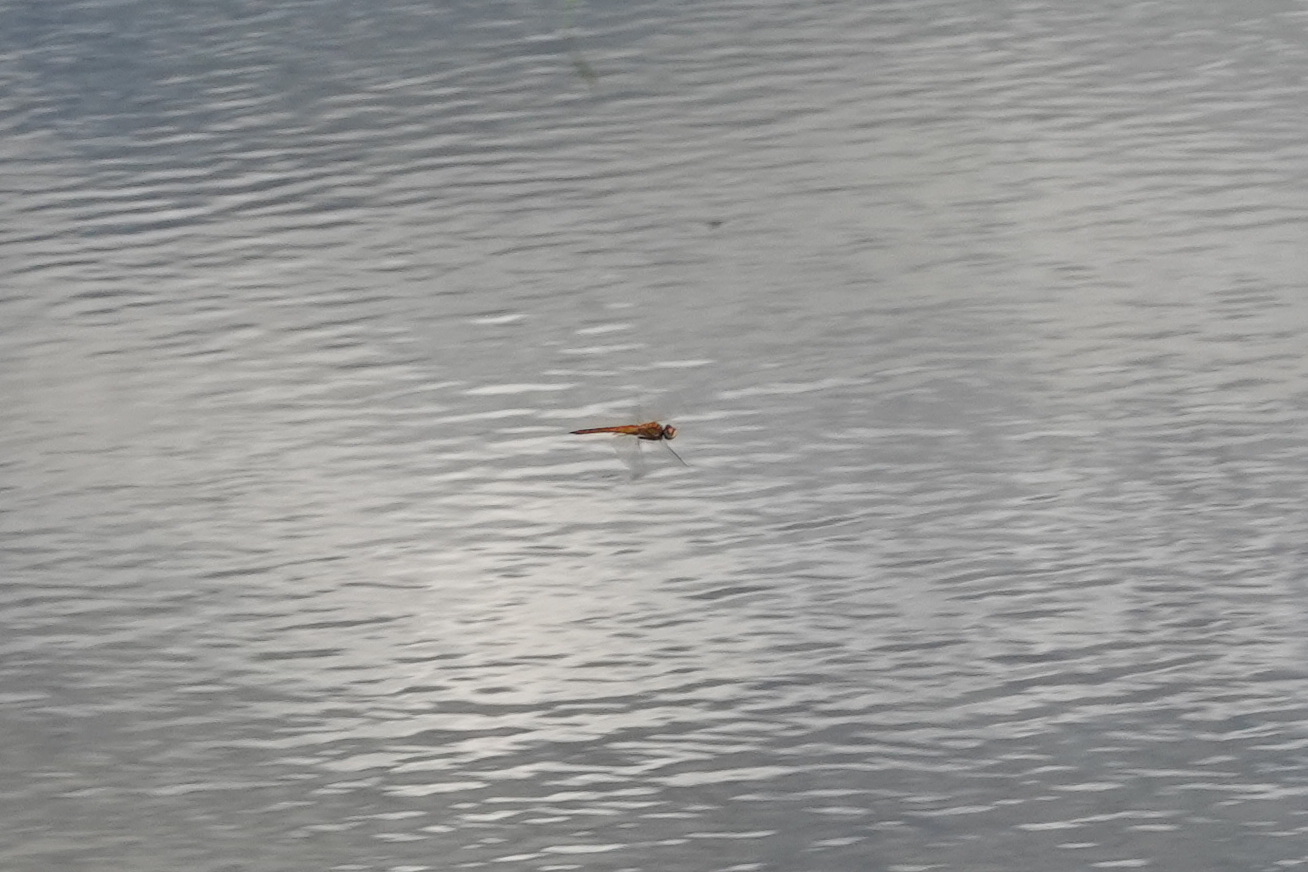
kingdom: Animalia
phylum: Arthropoda
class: Insecta
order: Odonata
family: Libellulidae
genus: Pantala
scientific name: Pantala flavescens
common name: Wandering glider
